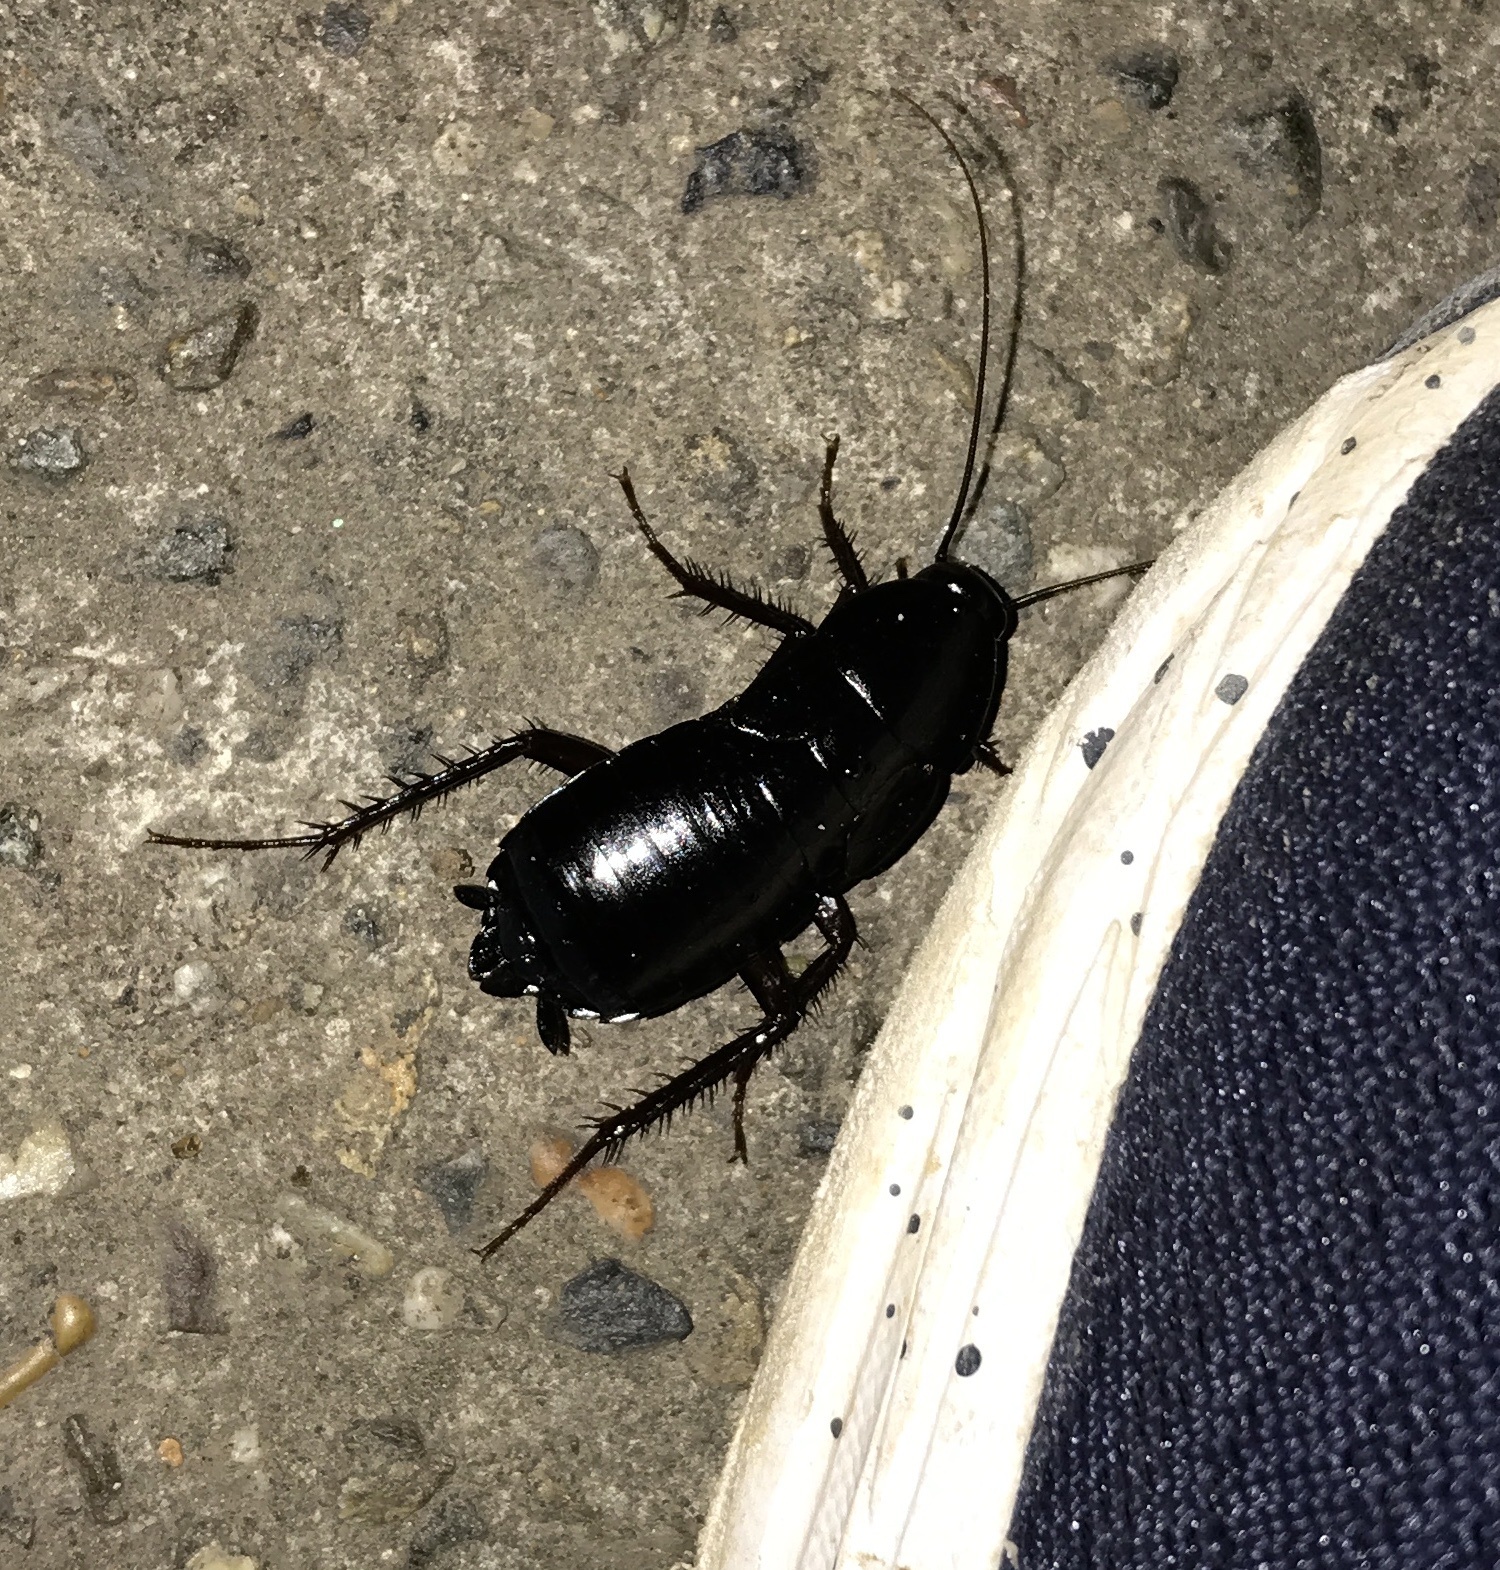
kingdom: Animalia
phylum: Arthropoda
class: Insecta
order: Blattodea
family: Blattidae
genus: Blatta
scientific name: Blatta orientalis
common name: Oriental cockroach
